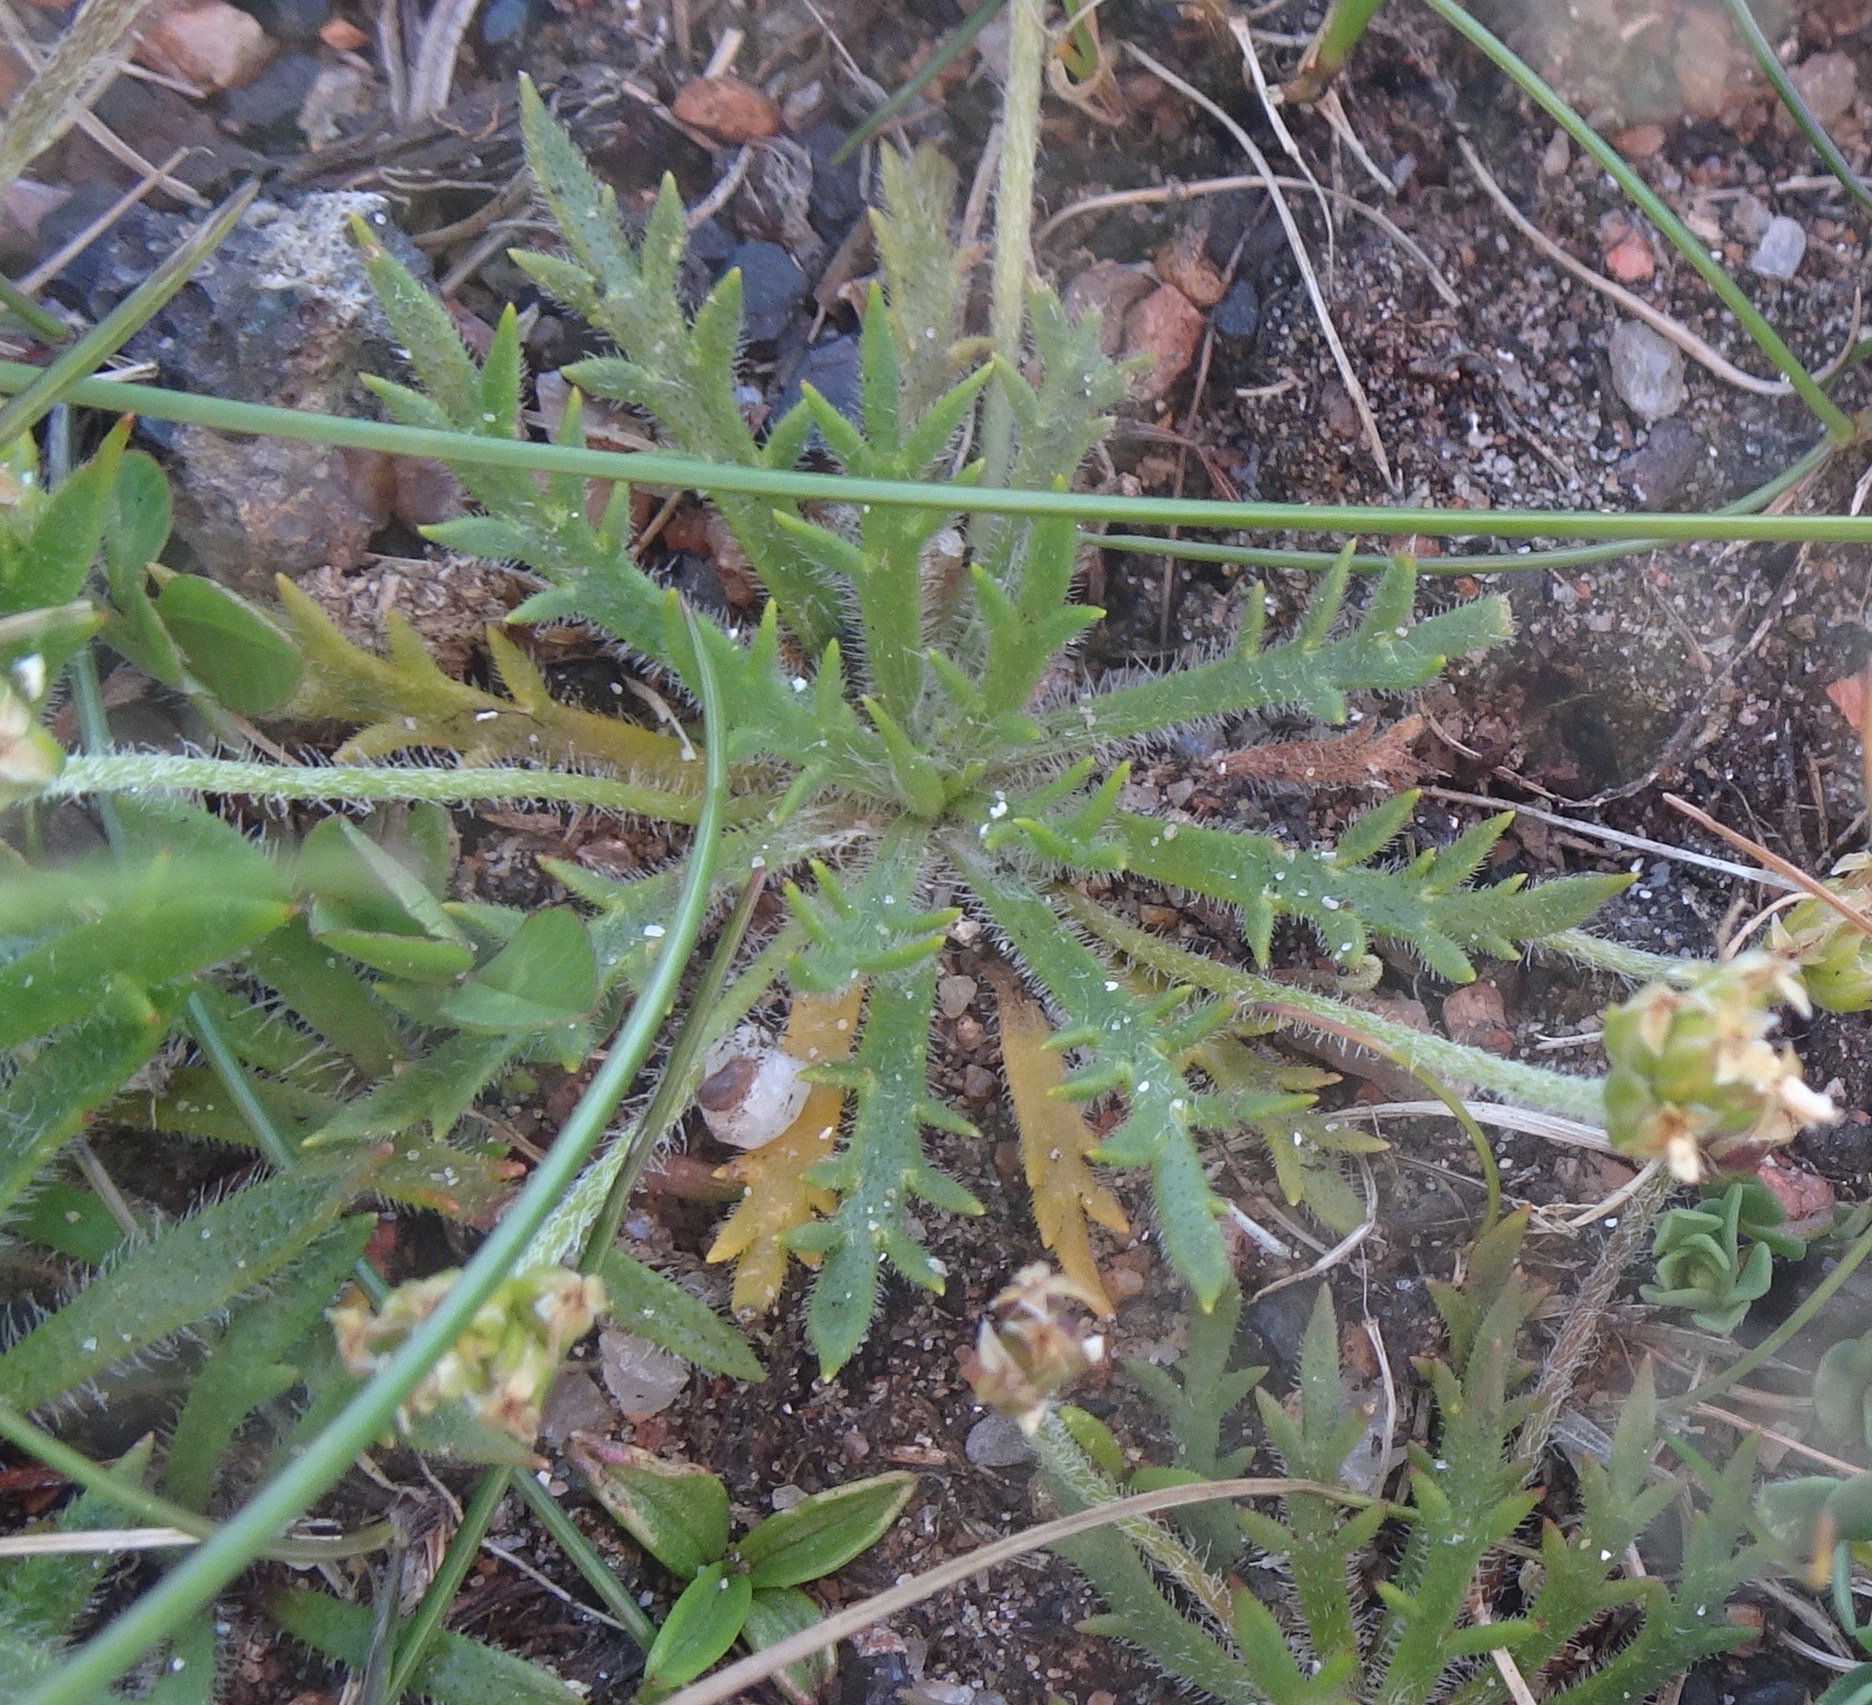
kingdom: Plantae
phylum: Tracheophyta
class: Magnoliopsida
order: Lamiales
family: Plantaginaceae
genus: Plantago
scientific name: Plantago coronopus
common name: Buck's-horn plantain
